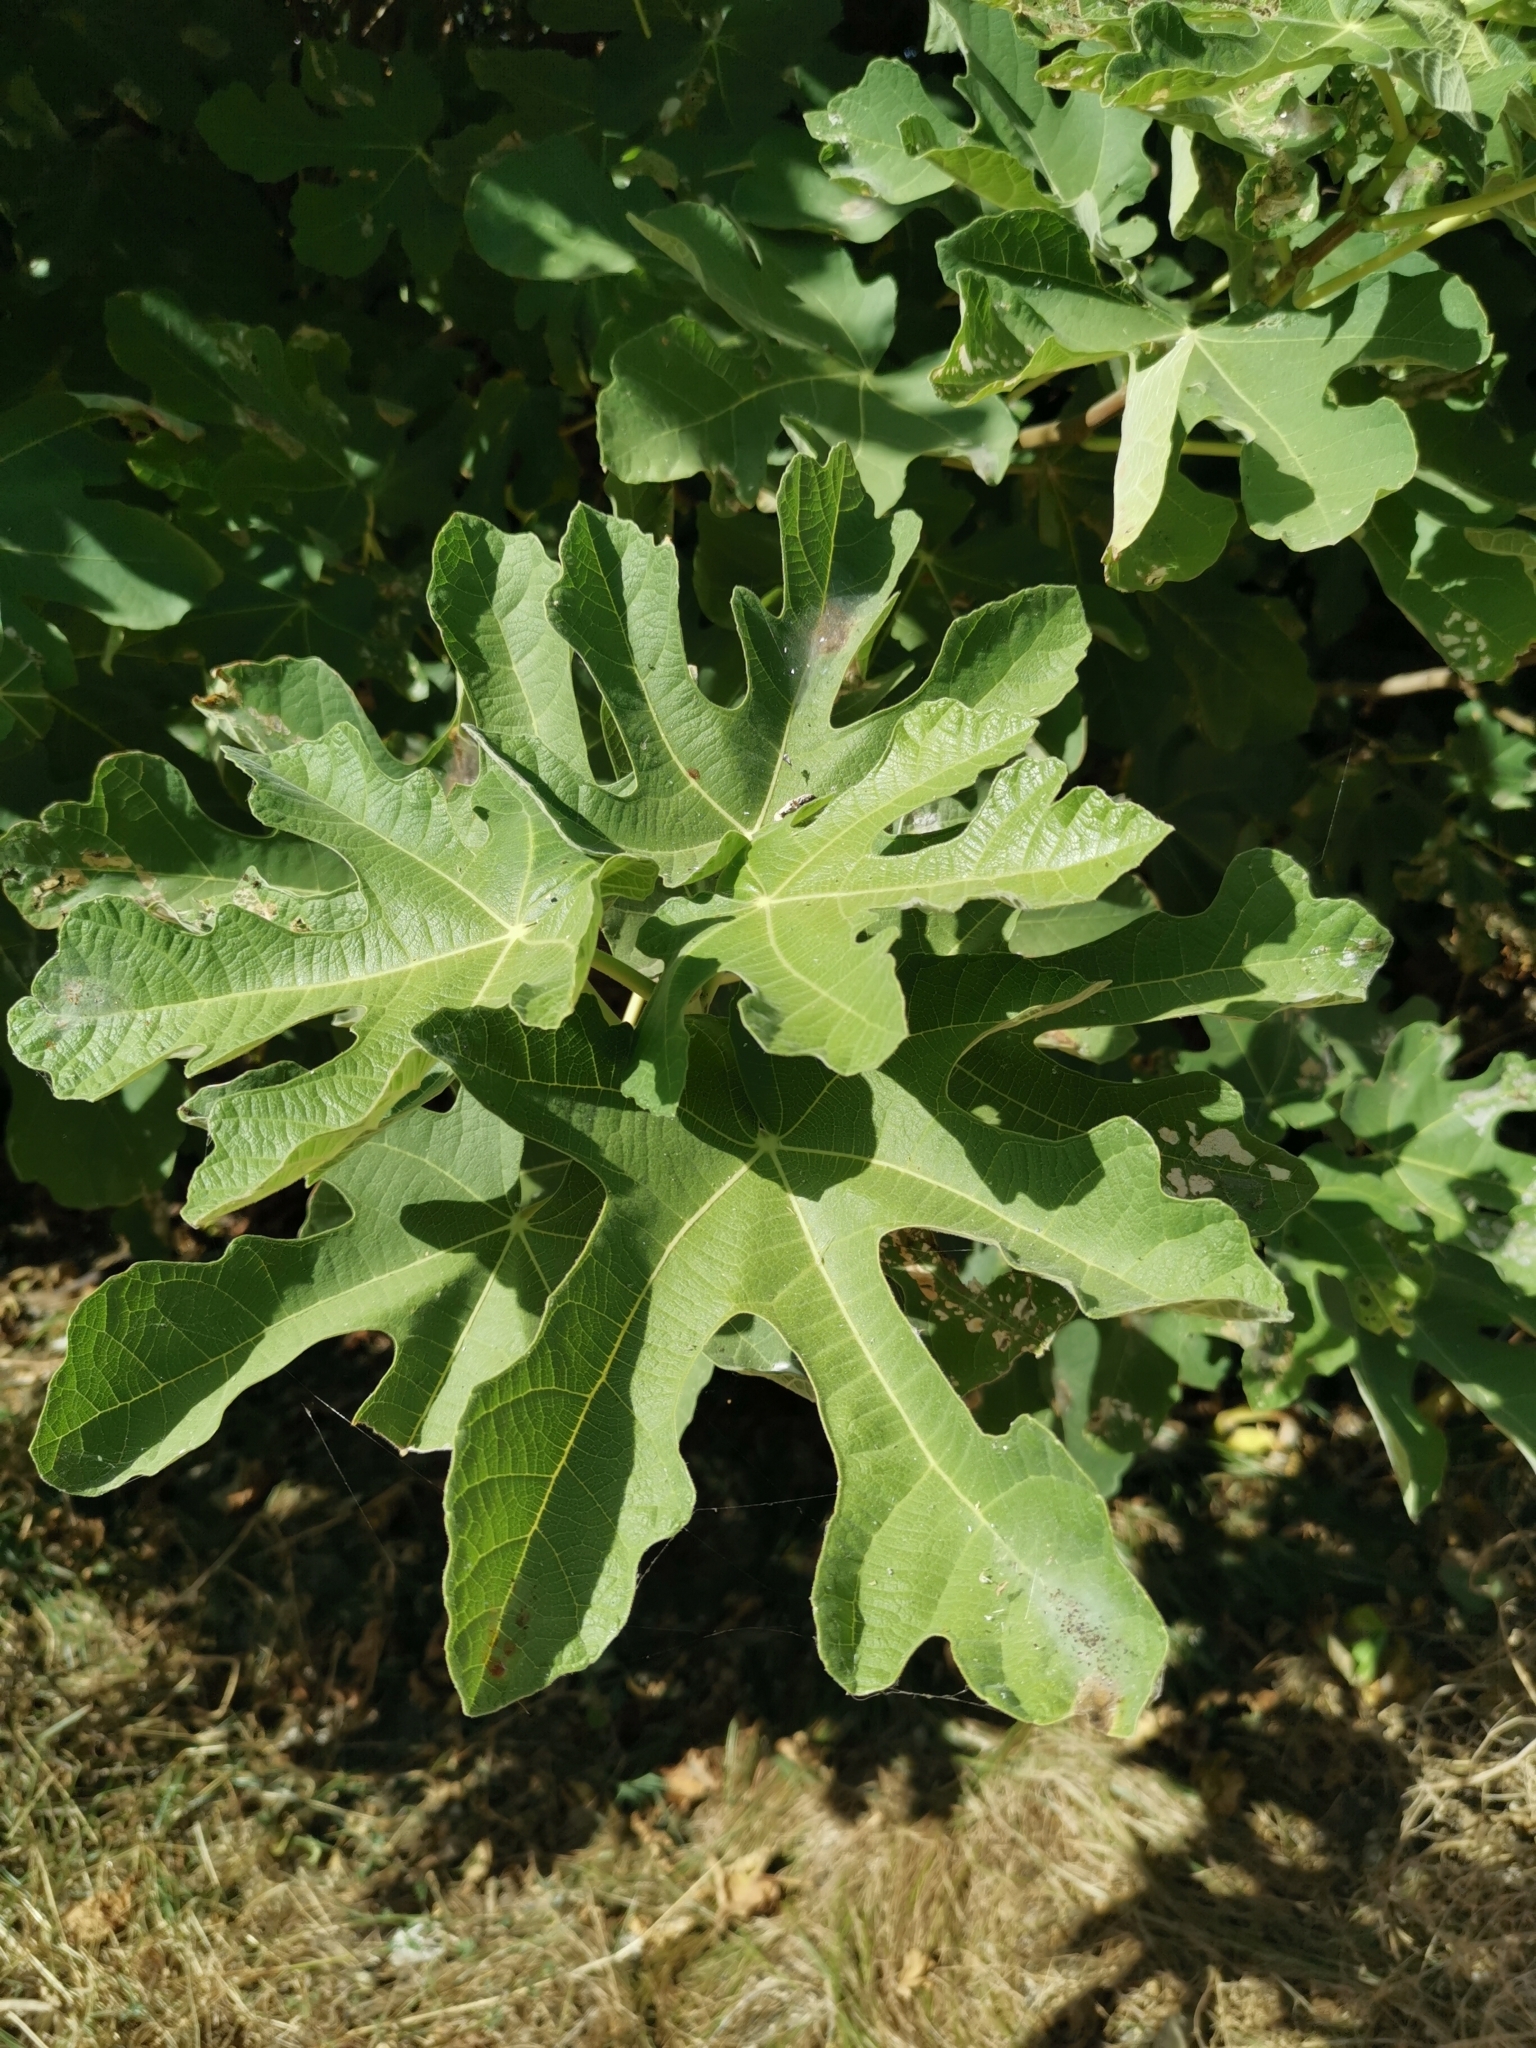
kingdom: Plantae
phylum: Tracheophyta
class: Magnoliopsida
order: Rosales
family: Moraceae
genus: Ficus
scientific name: Ficus carica
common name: Fig
